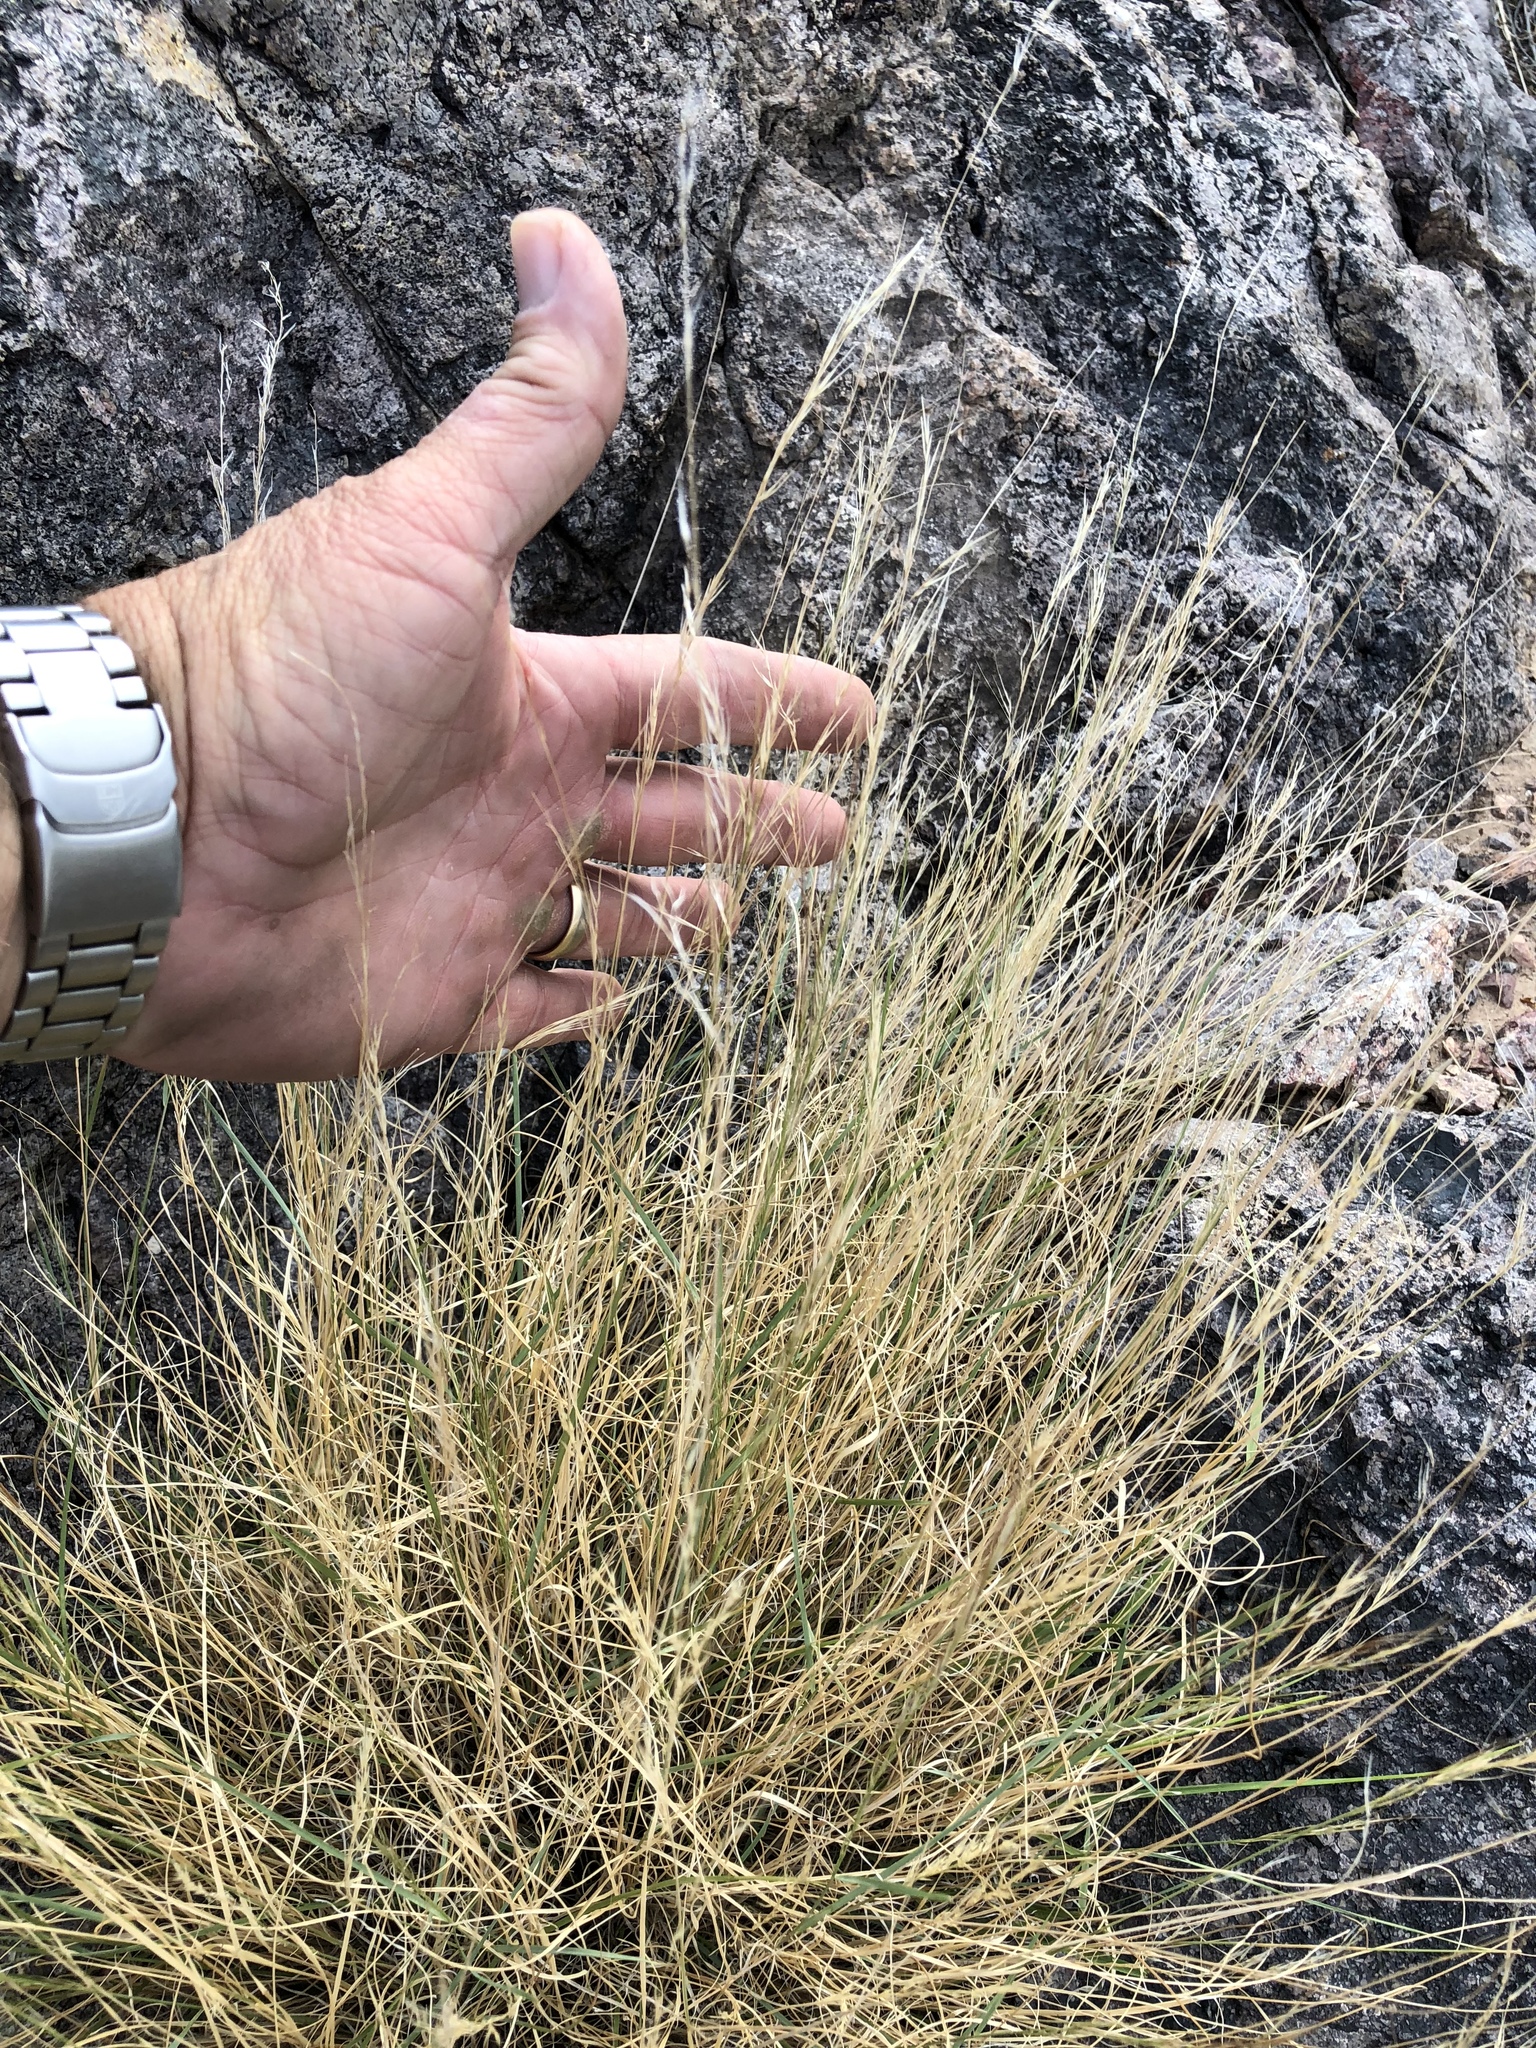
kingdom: Plantae
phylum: Tracheophyta
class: Liliopsida
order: Poales
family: Poaceae
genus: Aristida
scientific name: Aristida purpurea
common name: Purple threeawn
